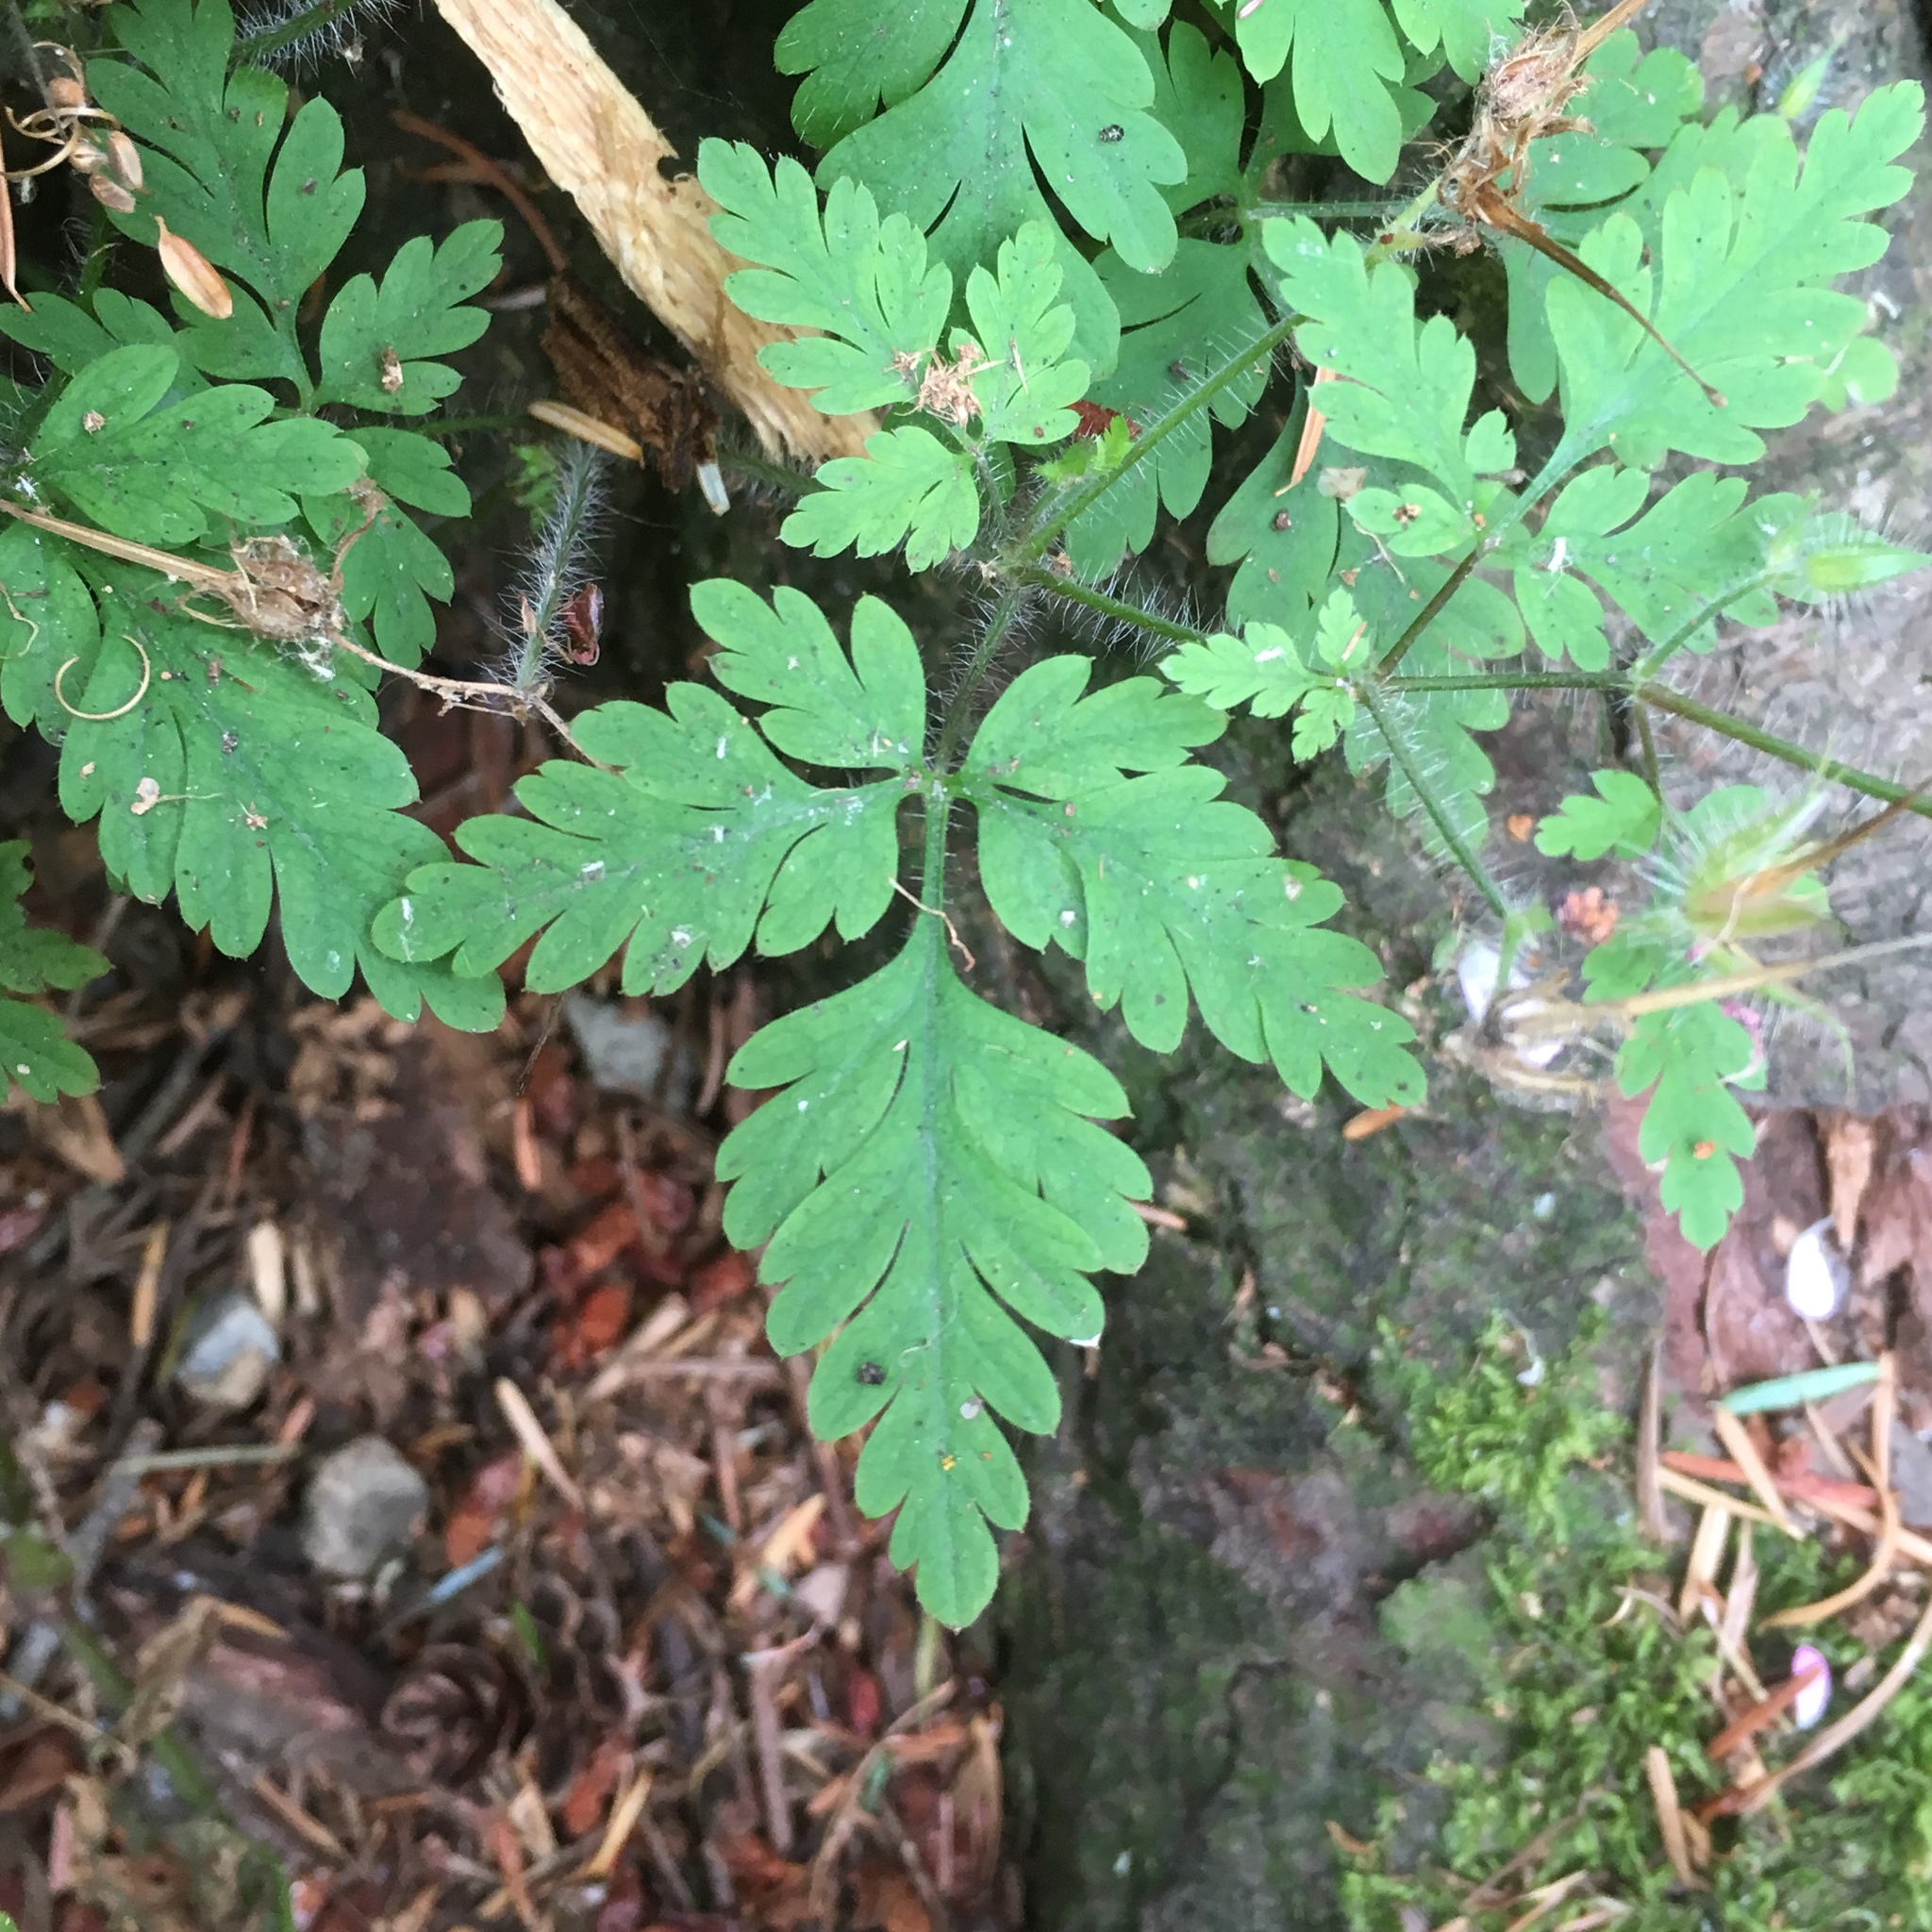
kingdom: Plantae
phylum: Tracheophyta
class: Magnoliopsida
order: Geraniales
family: Geraniaceae
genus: Geranium
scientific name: Geranium robertianum
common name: Herb-robert
